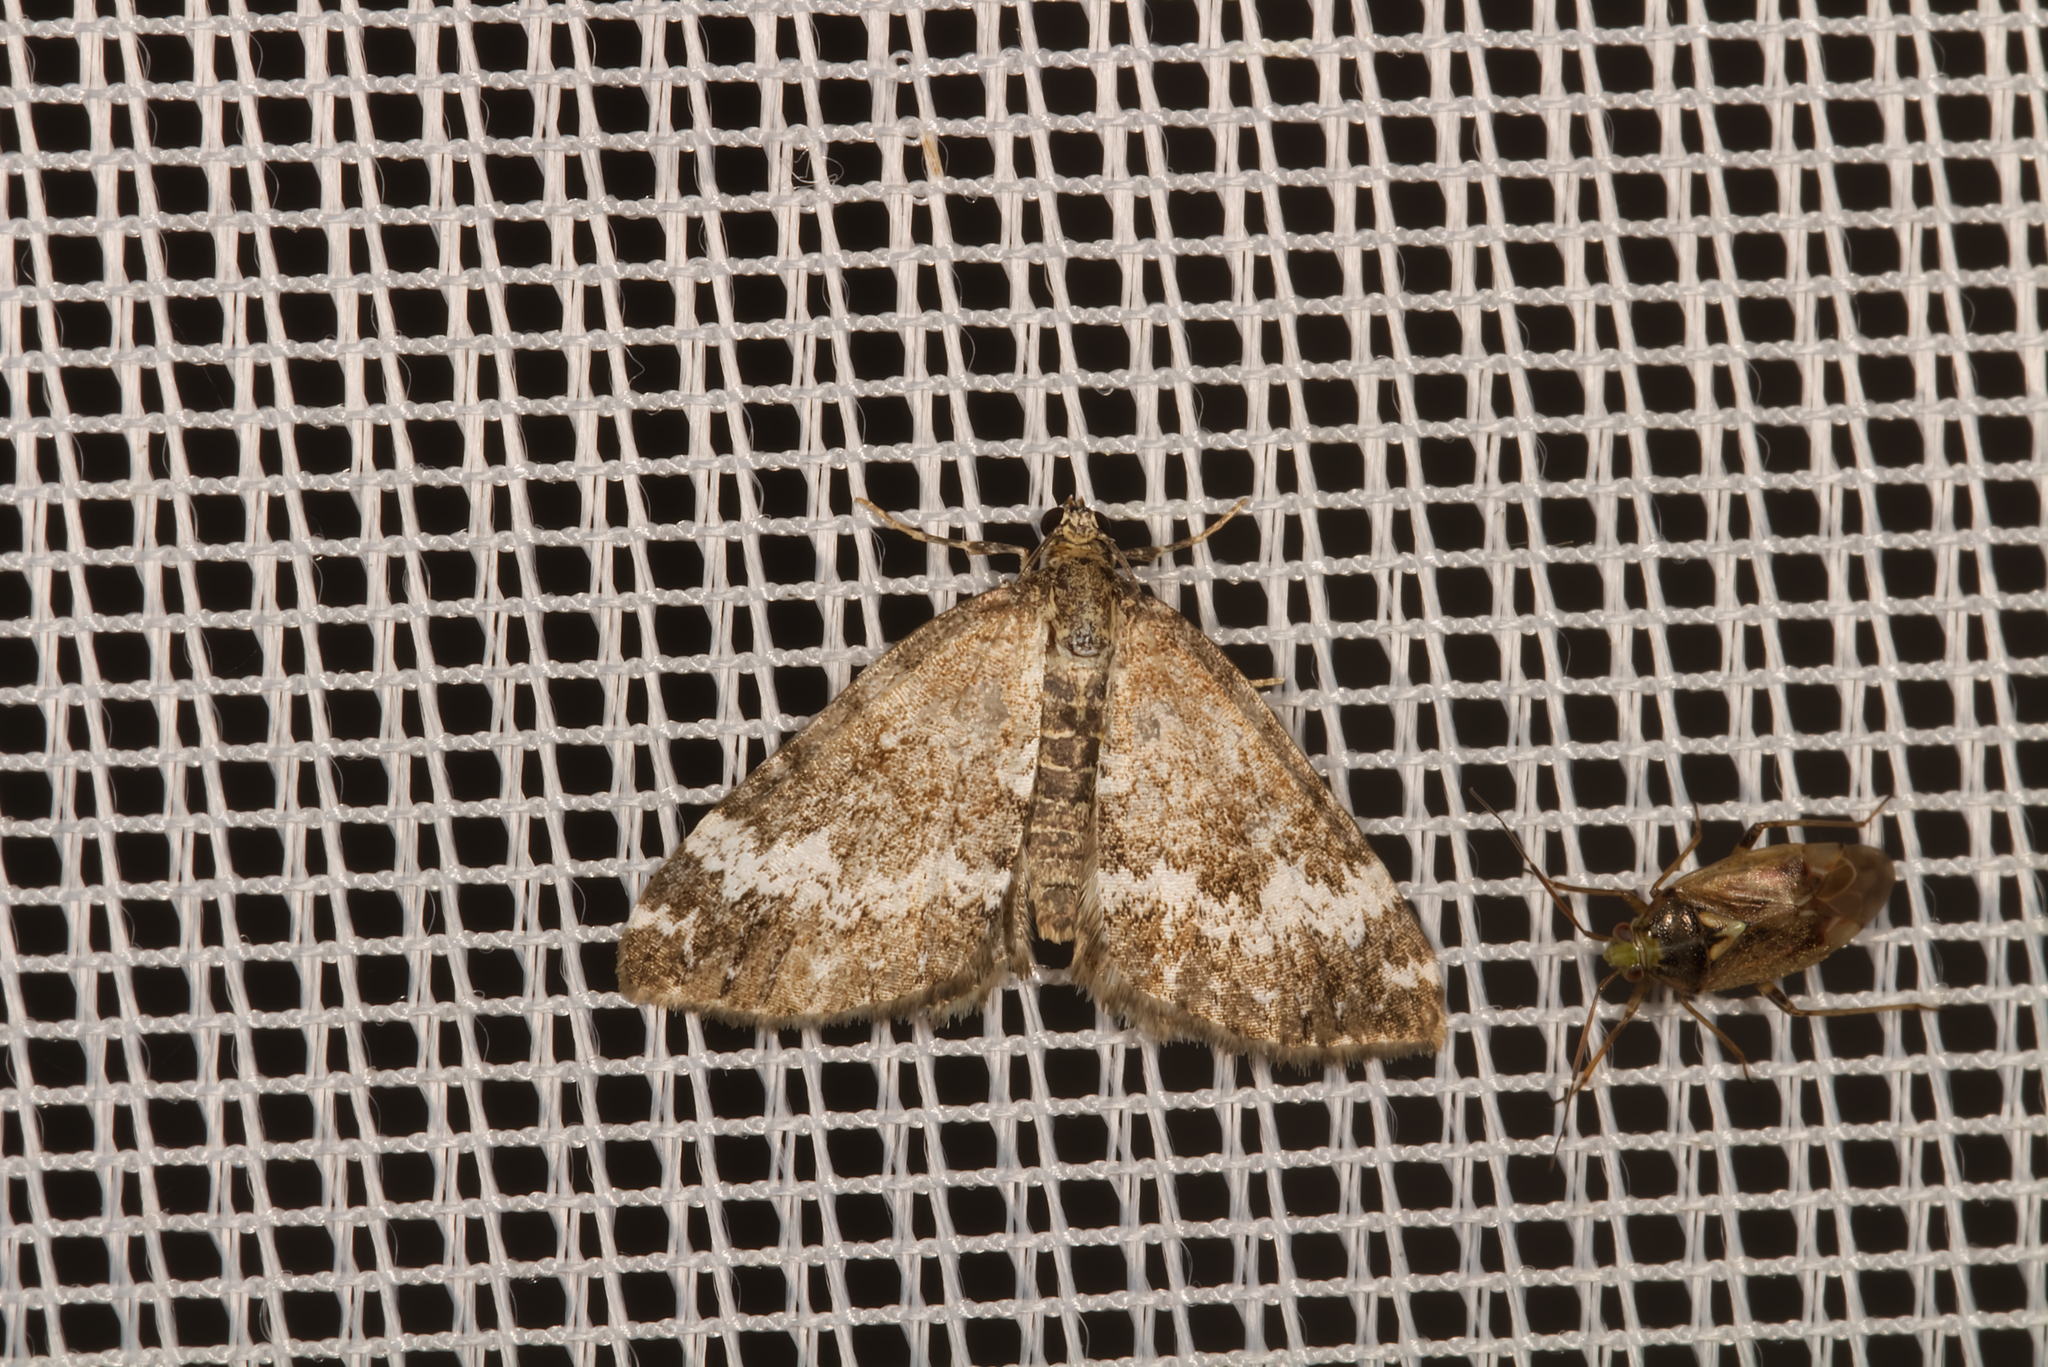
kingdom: Animalia
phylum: Arthropoda
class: Insecta
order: Lepidoptera
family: Geometridae
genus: Perizoma
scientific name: Perizoma alchemillata
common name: Small rivulet
